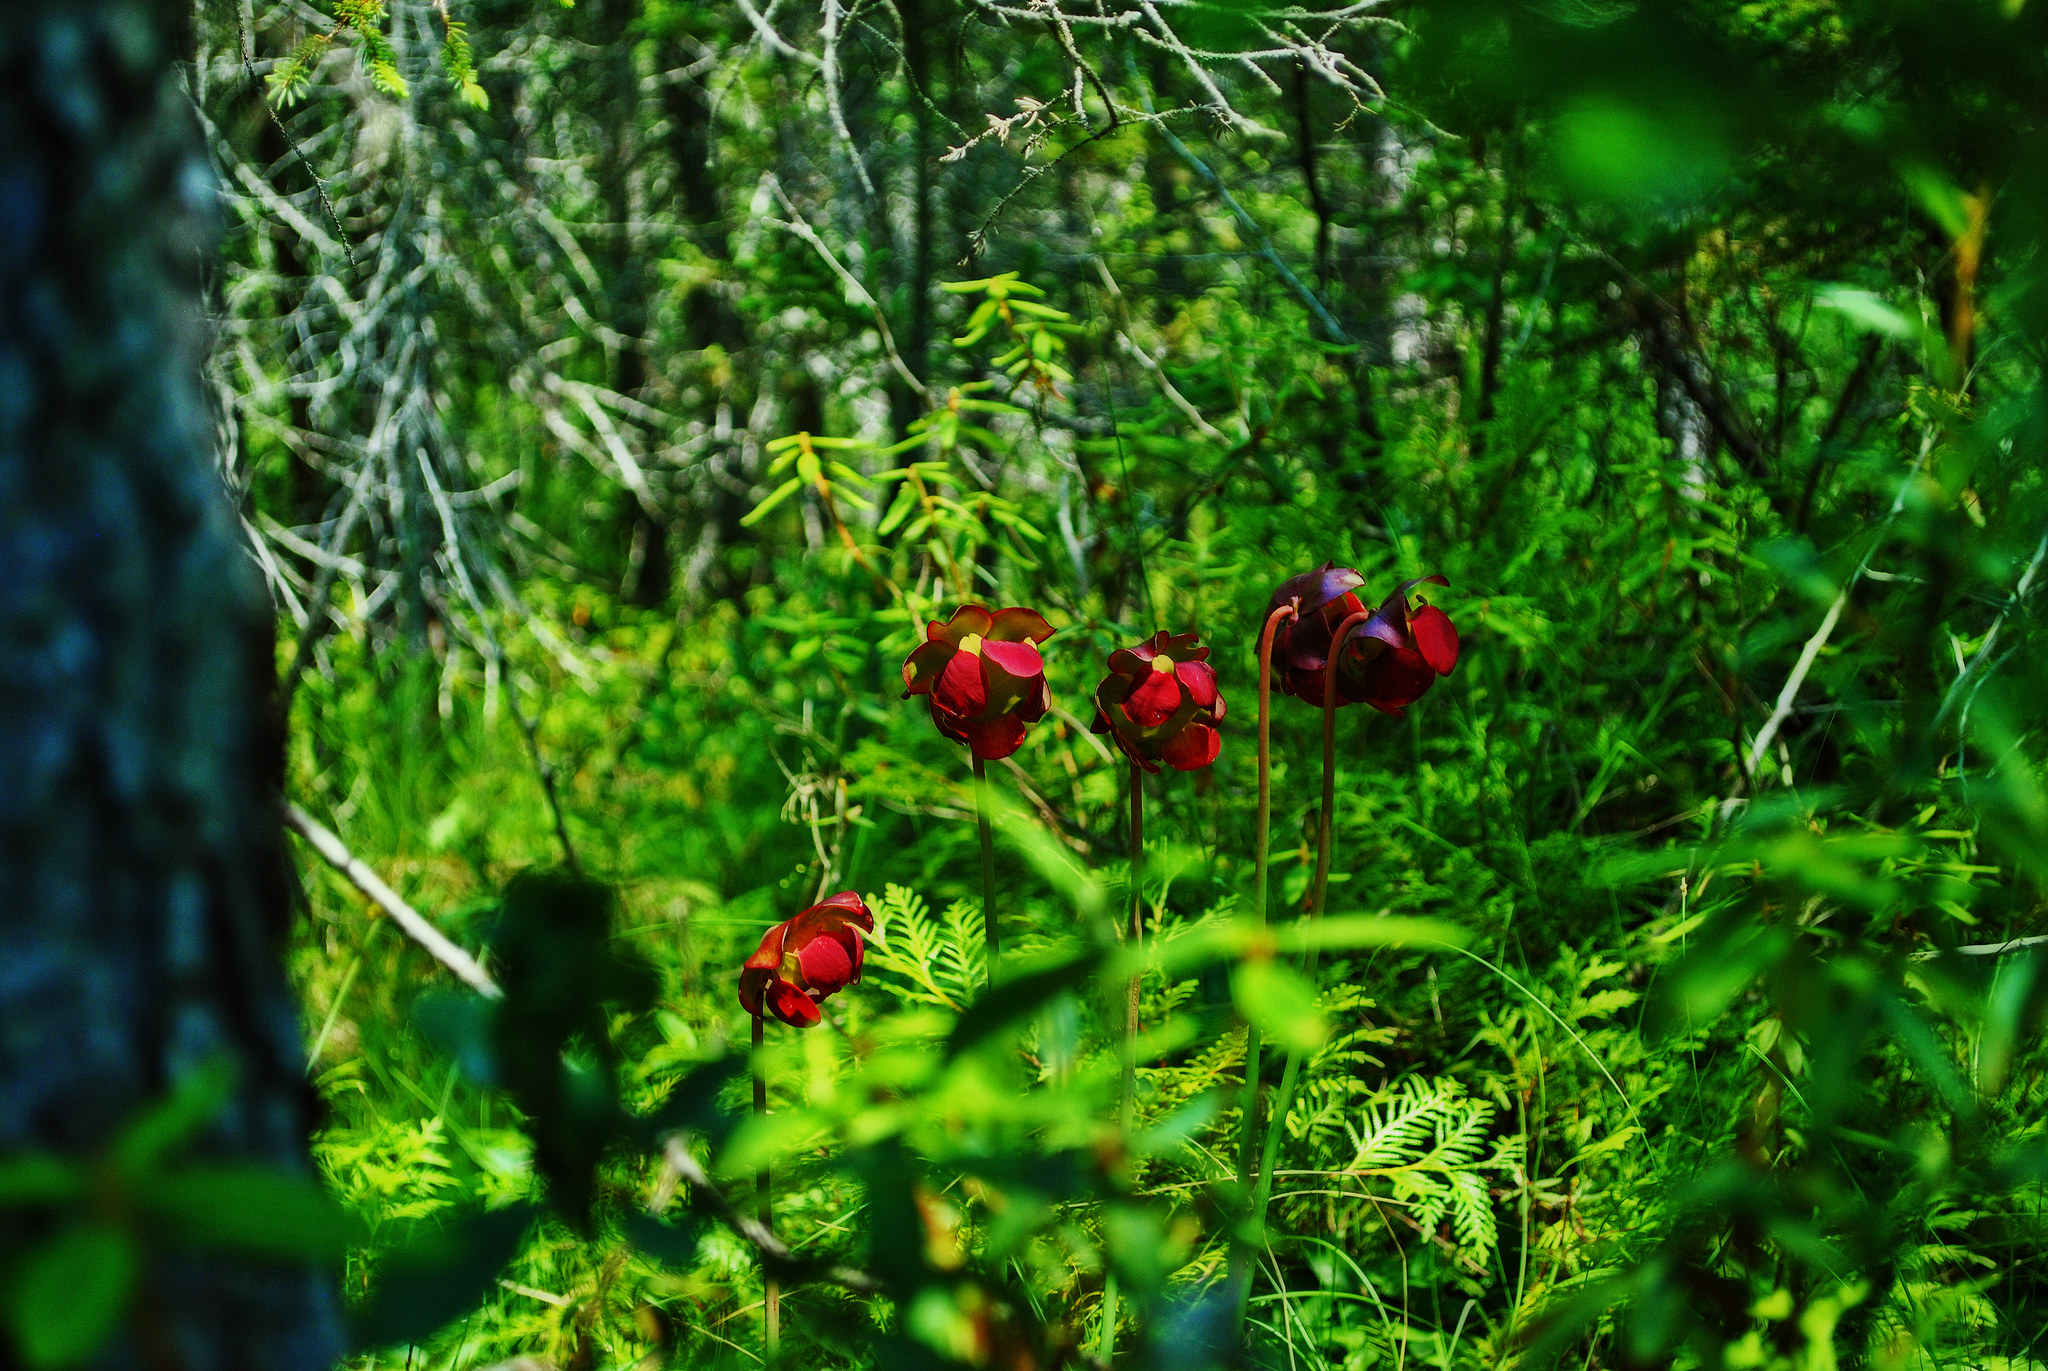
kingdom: Plantae
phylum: Tracheophyta
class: Magnoliopsida
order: Ericales
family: Sarraceniaceae
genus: Sarracenia
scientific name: Sarracenia purpurea
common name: Pitcherplant
